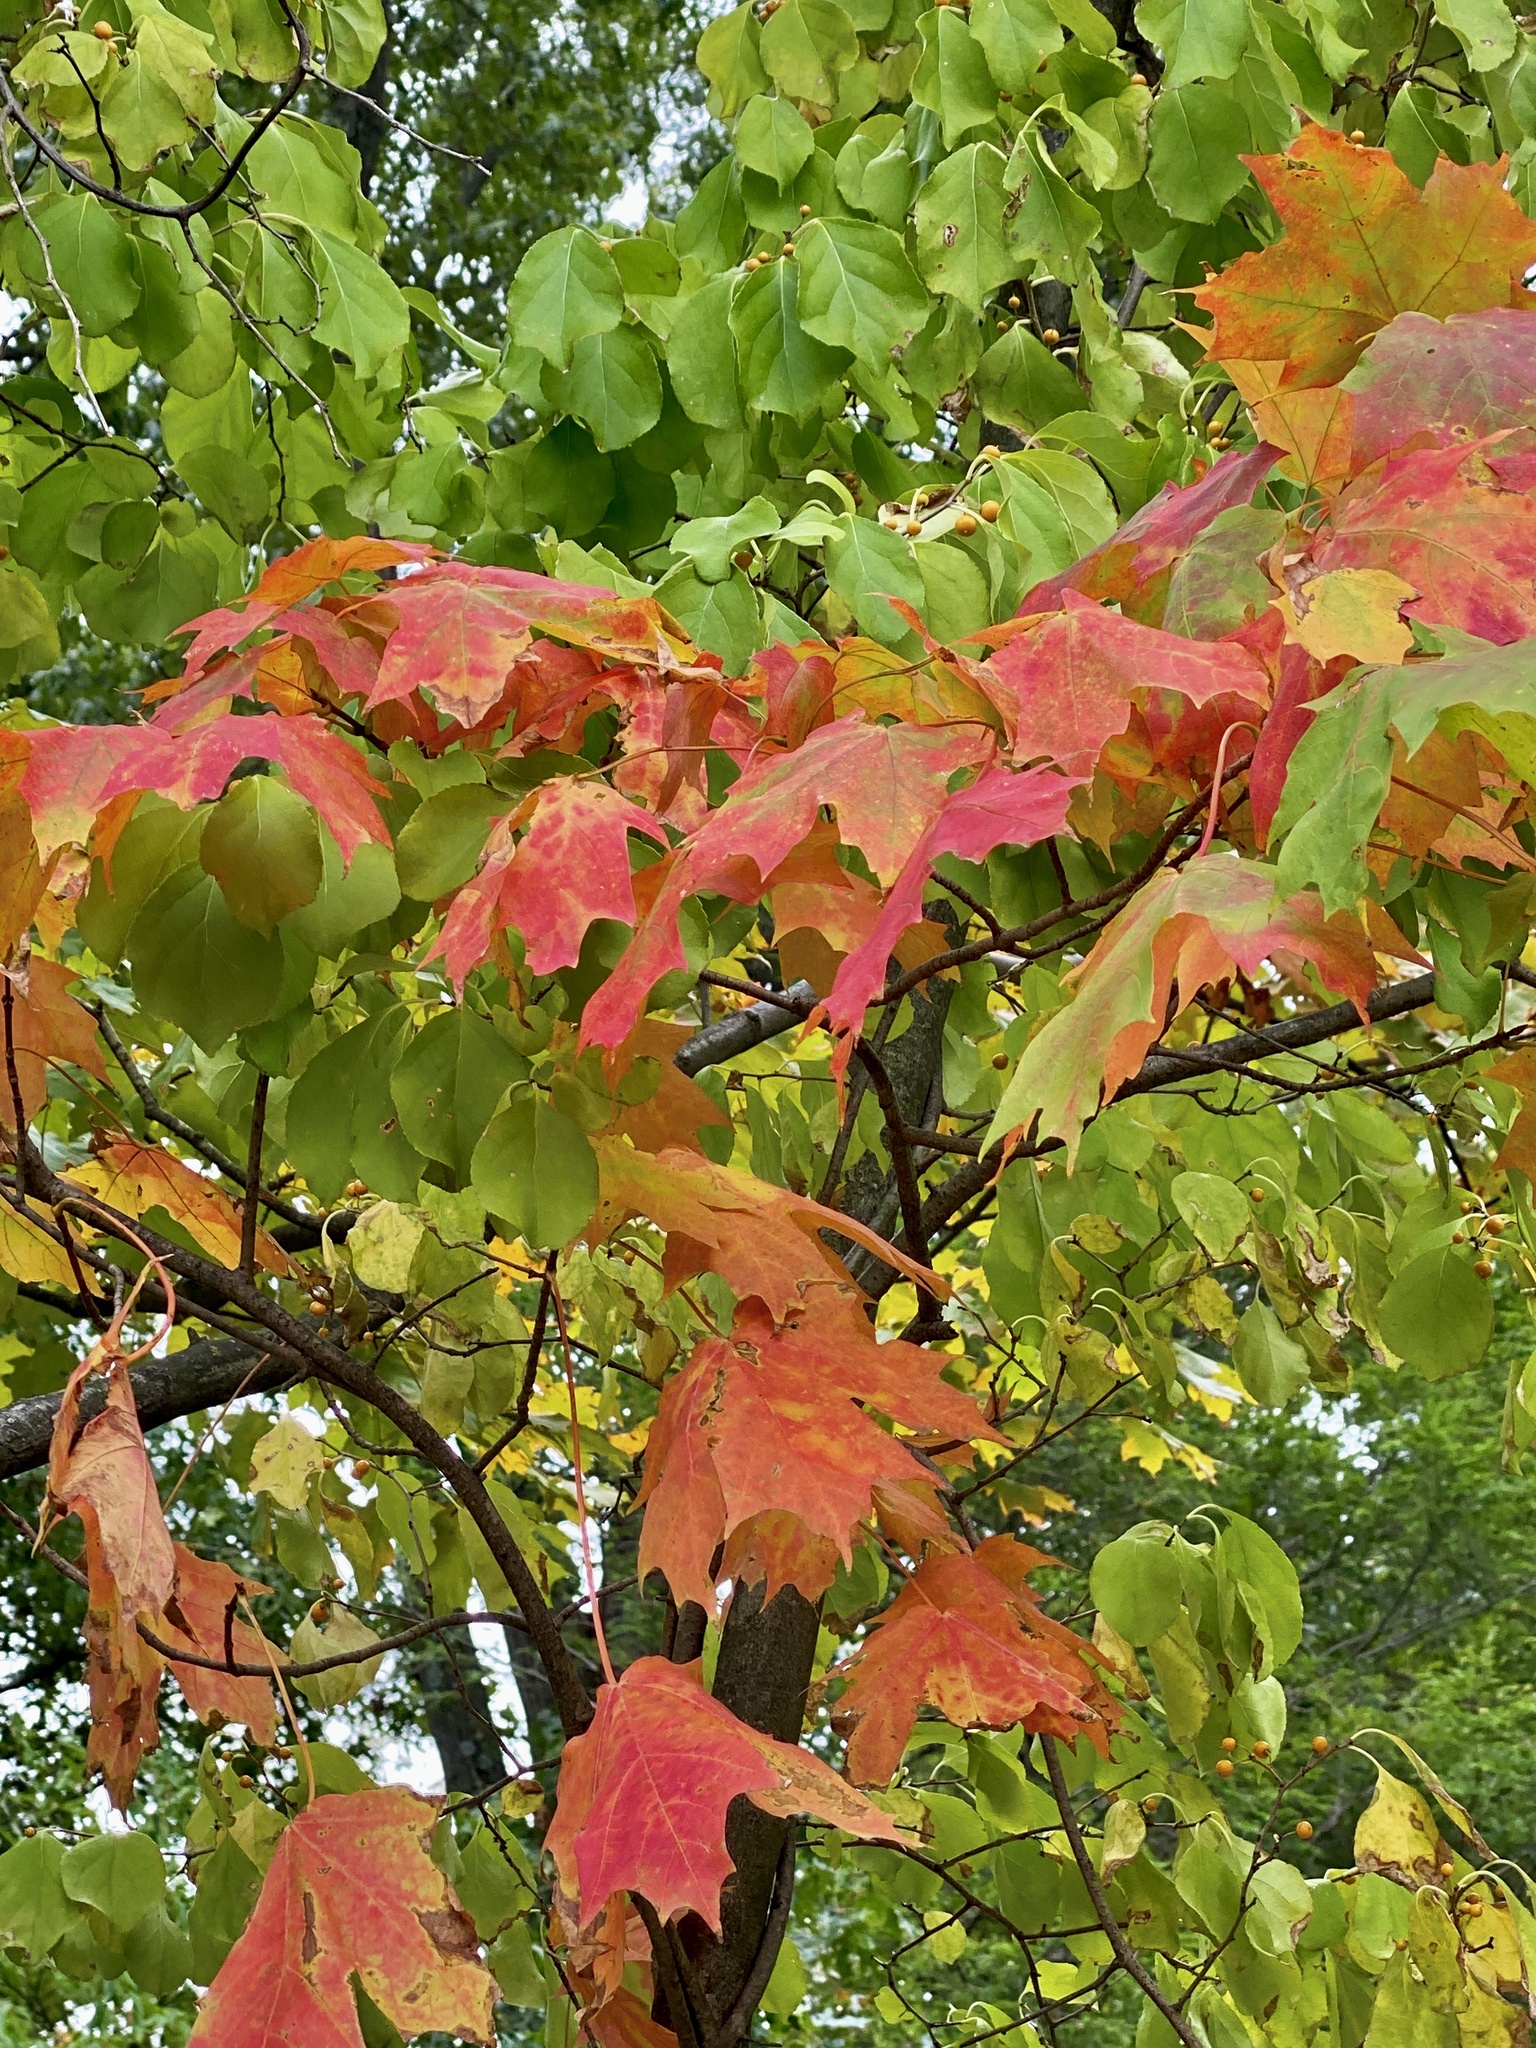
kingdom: Plantae
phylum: Tracheophyta
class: Magnoliopsida
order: Sapindales
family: Sapindaceae
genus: Acer
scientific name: Acer saccharum
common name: Sugar maple
